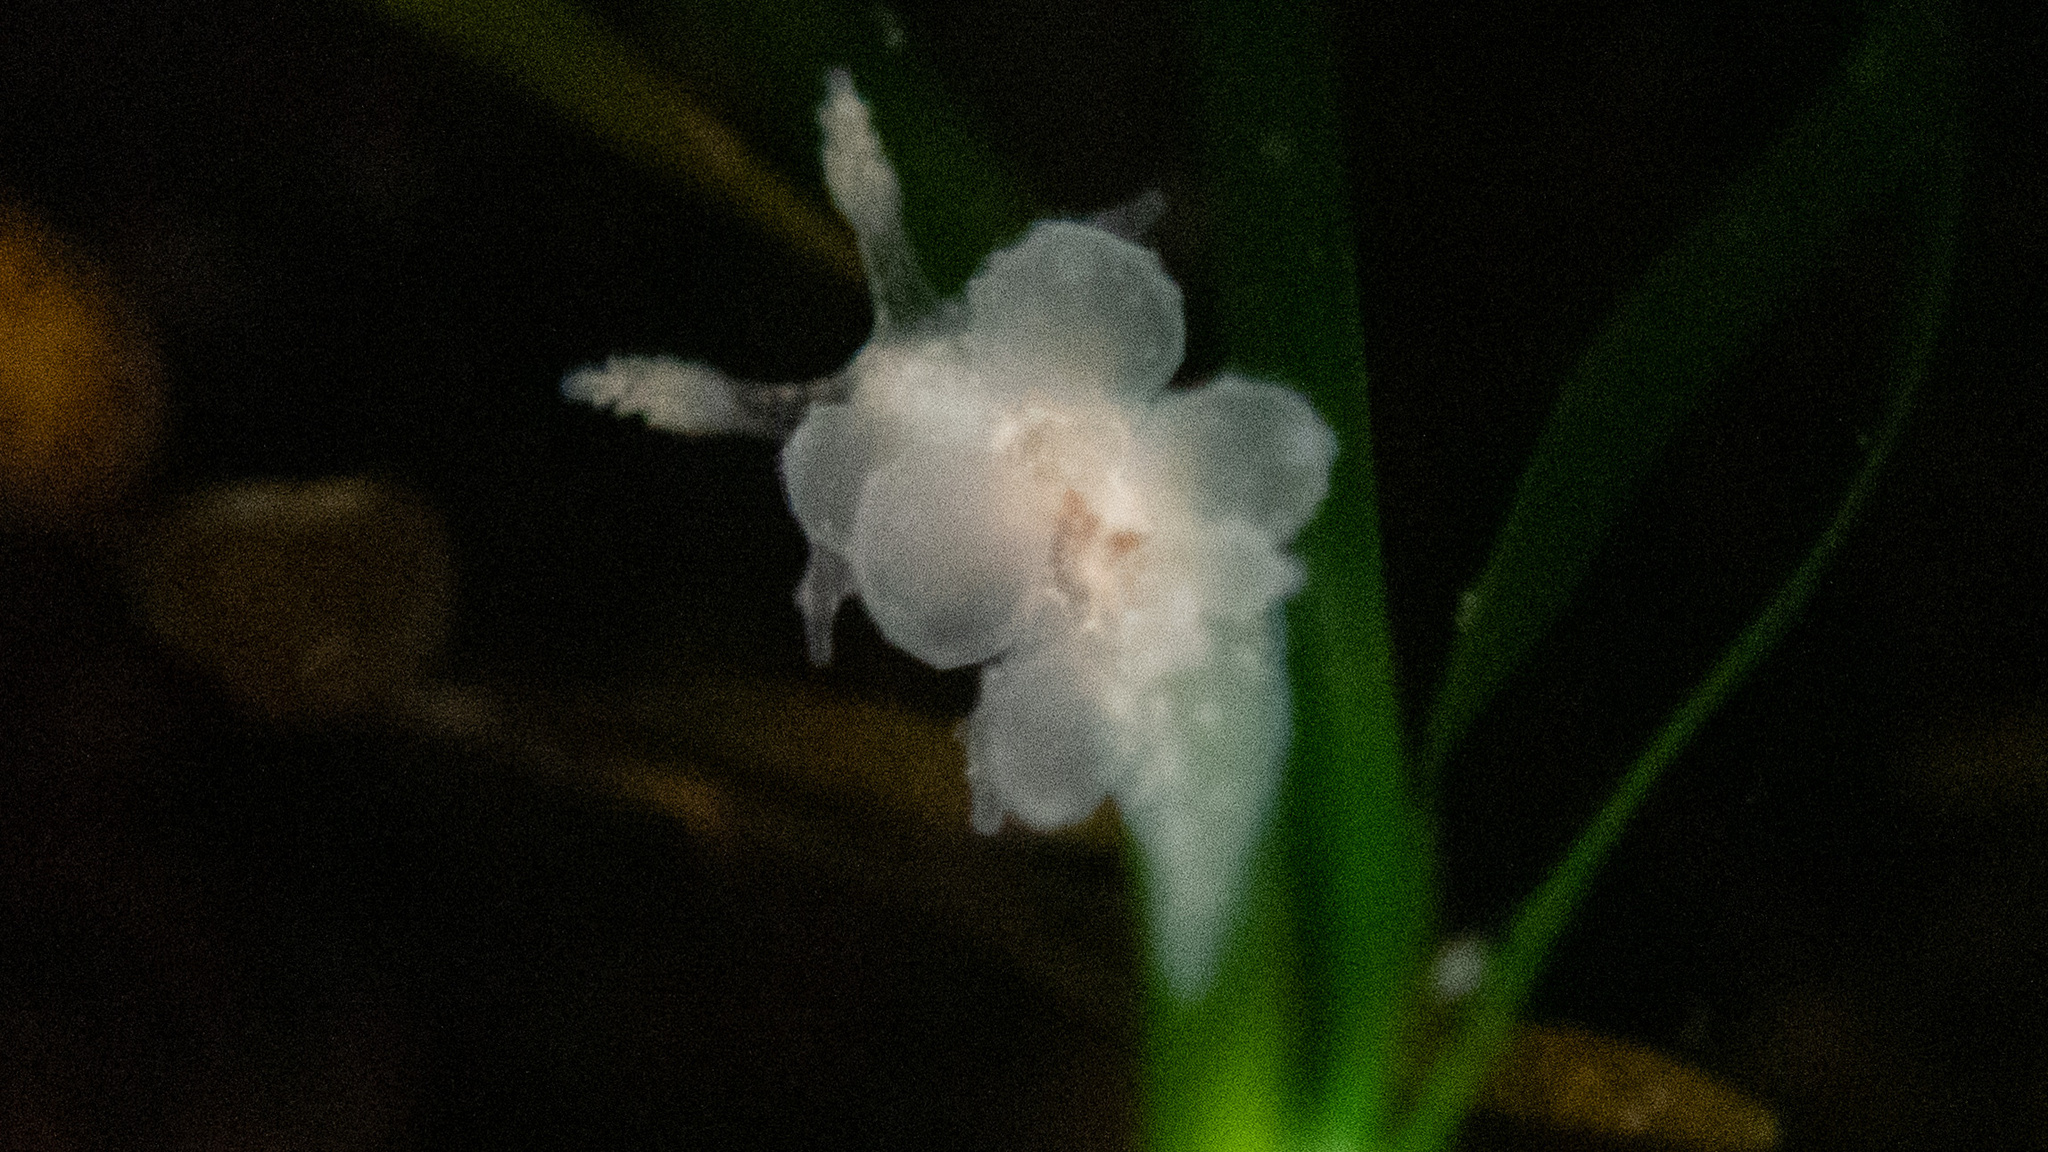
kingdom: Animalia
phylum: Mollusca
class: Gastropoda
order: Nudibranchia
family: Dironidae
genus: Dirona
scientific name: Dirona picta
